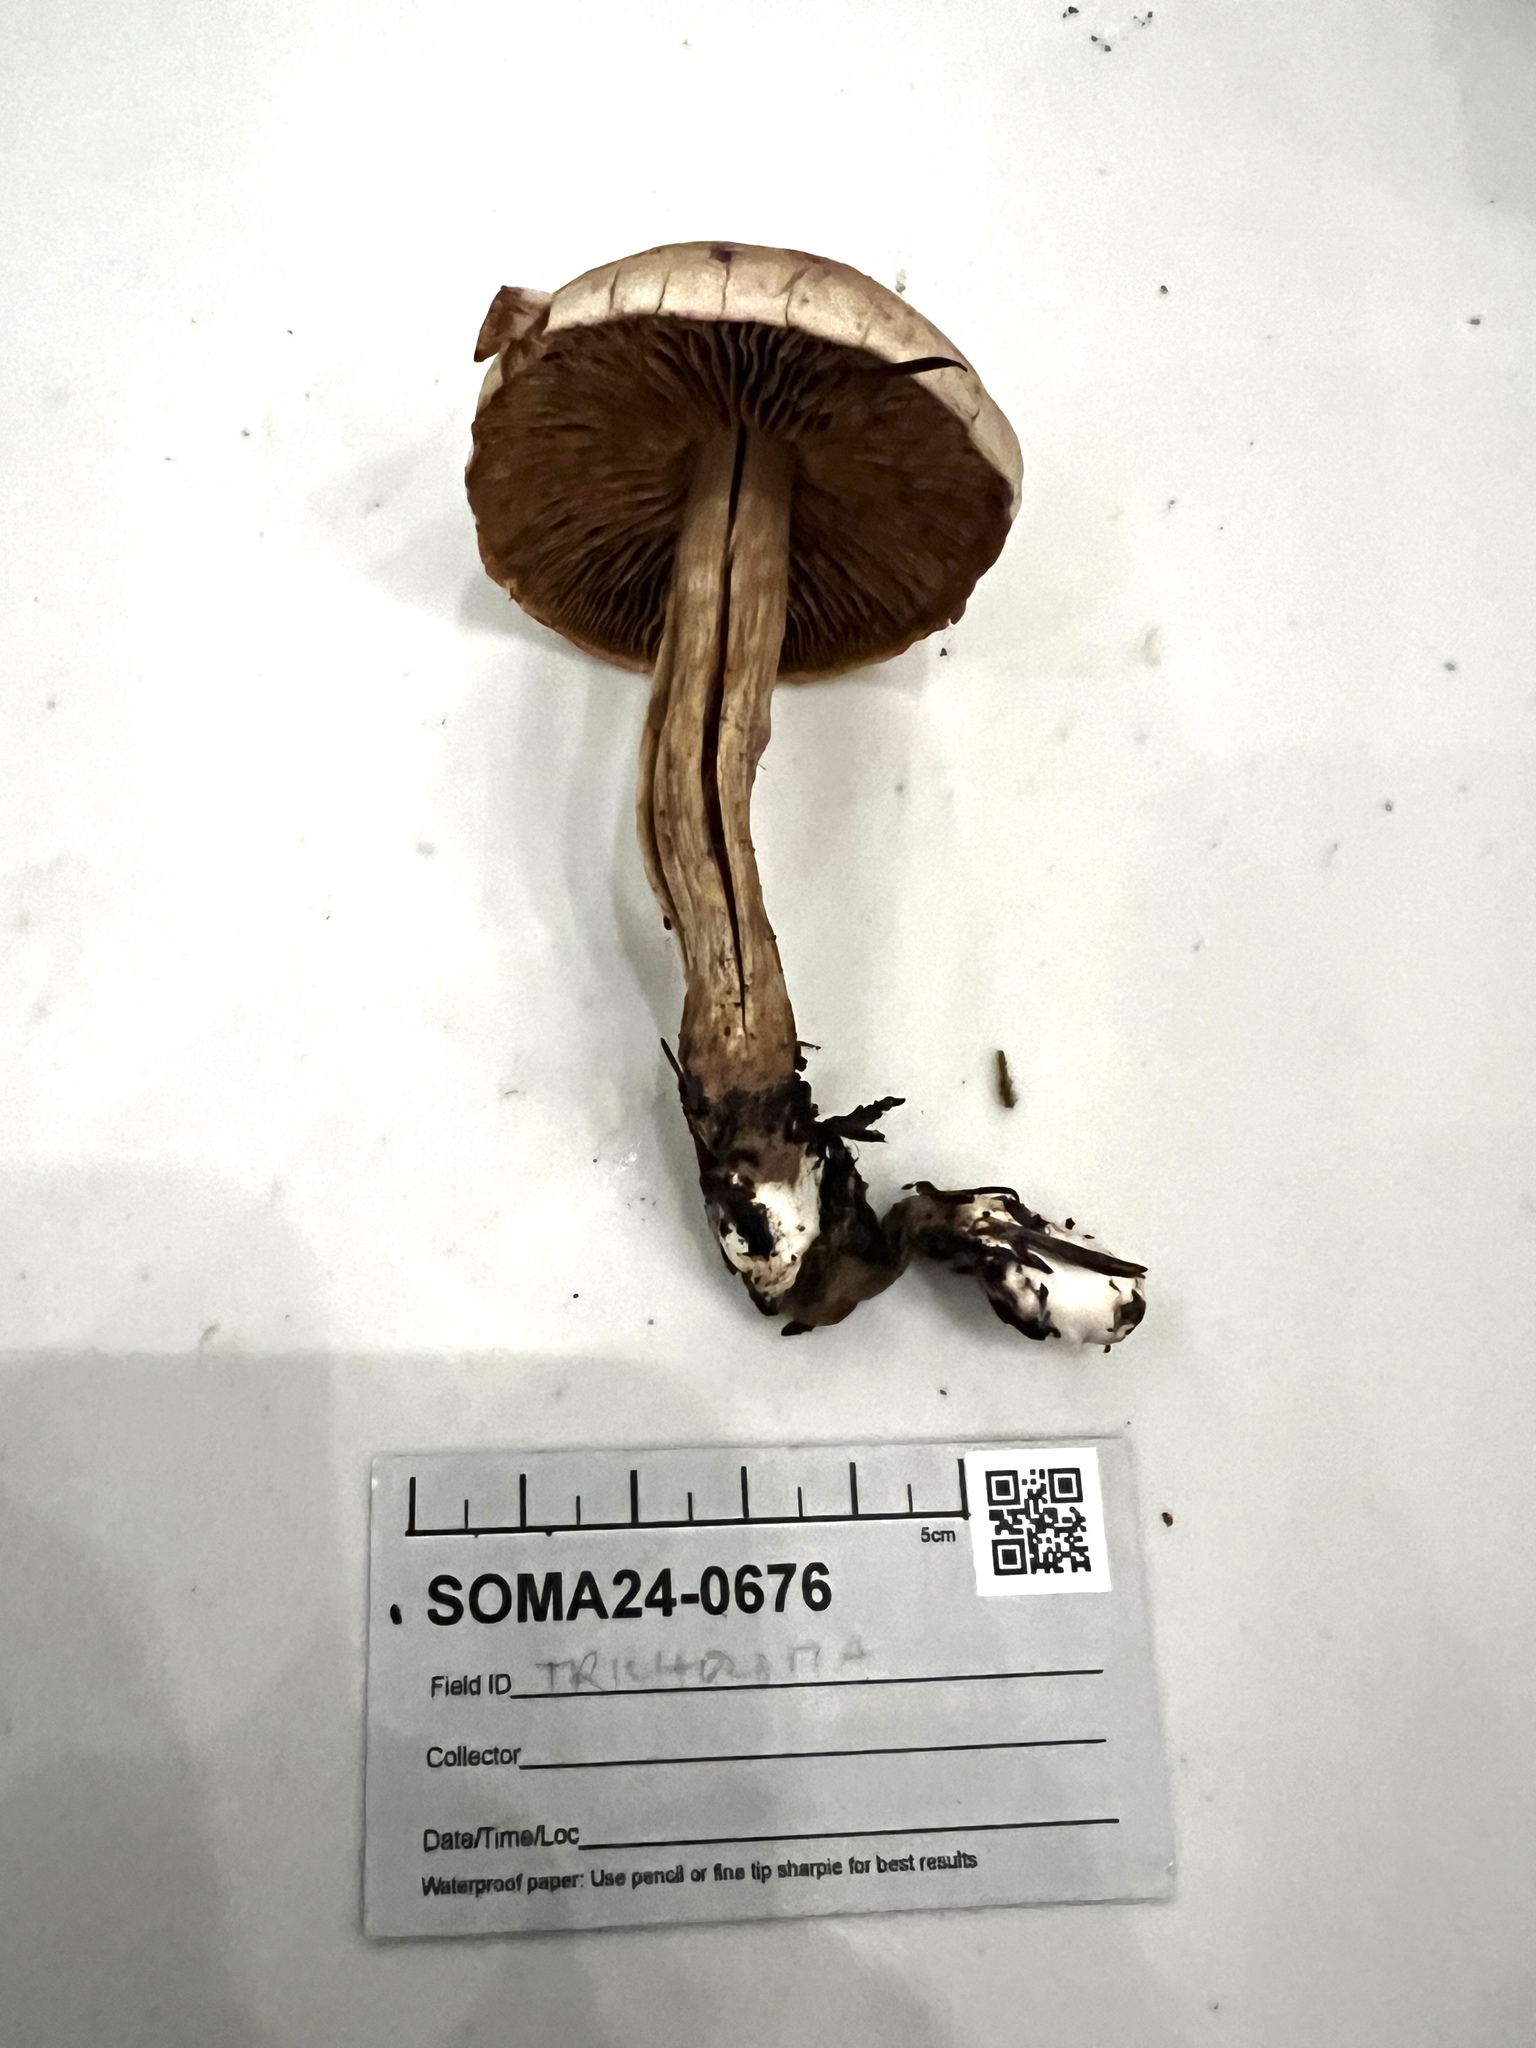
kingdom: Fungi
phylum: Basidiomycota
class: Agaricomycetes
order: Agaricales
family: Cortinariaceae
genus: Cortinarius
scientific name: Cortinarius anomalopacificus
